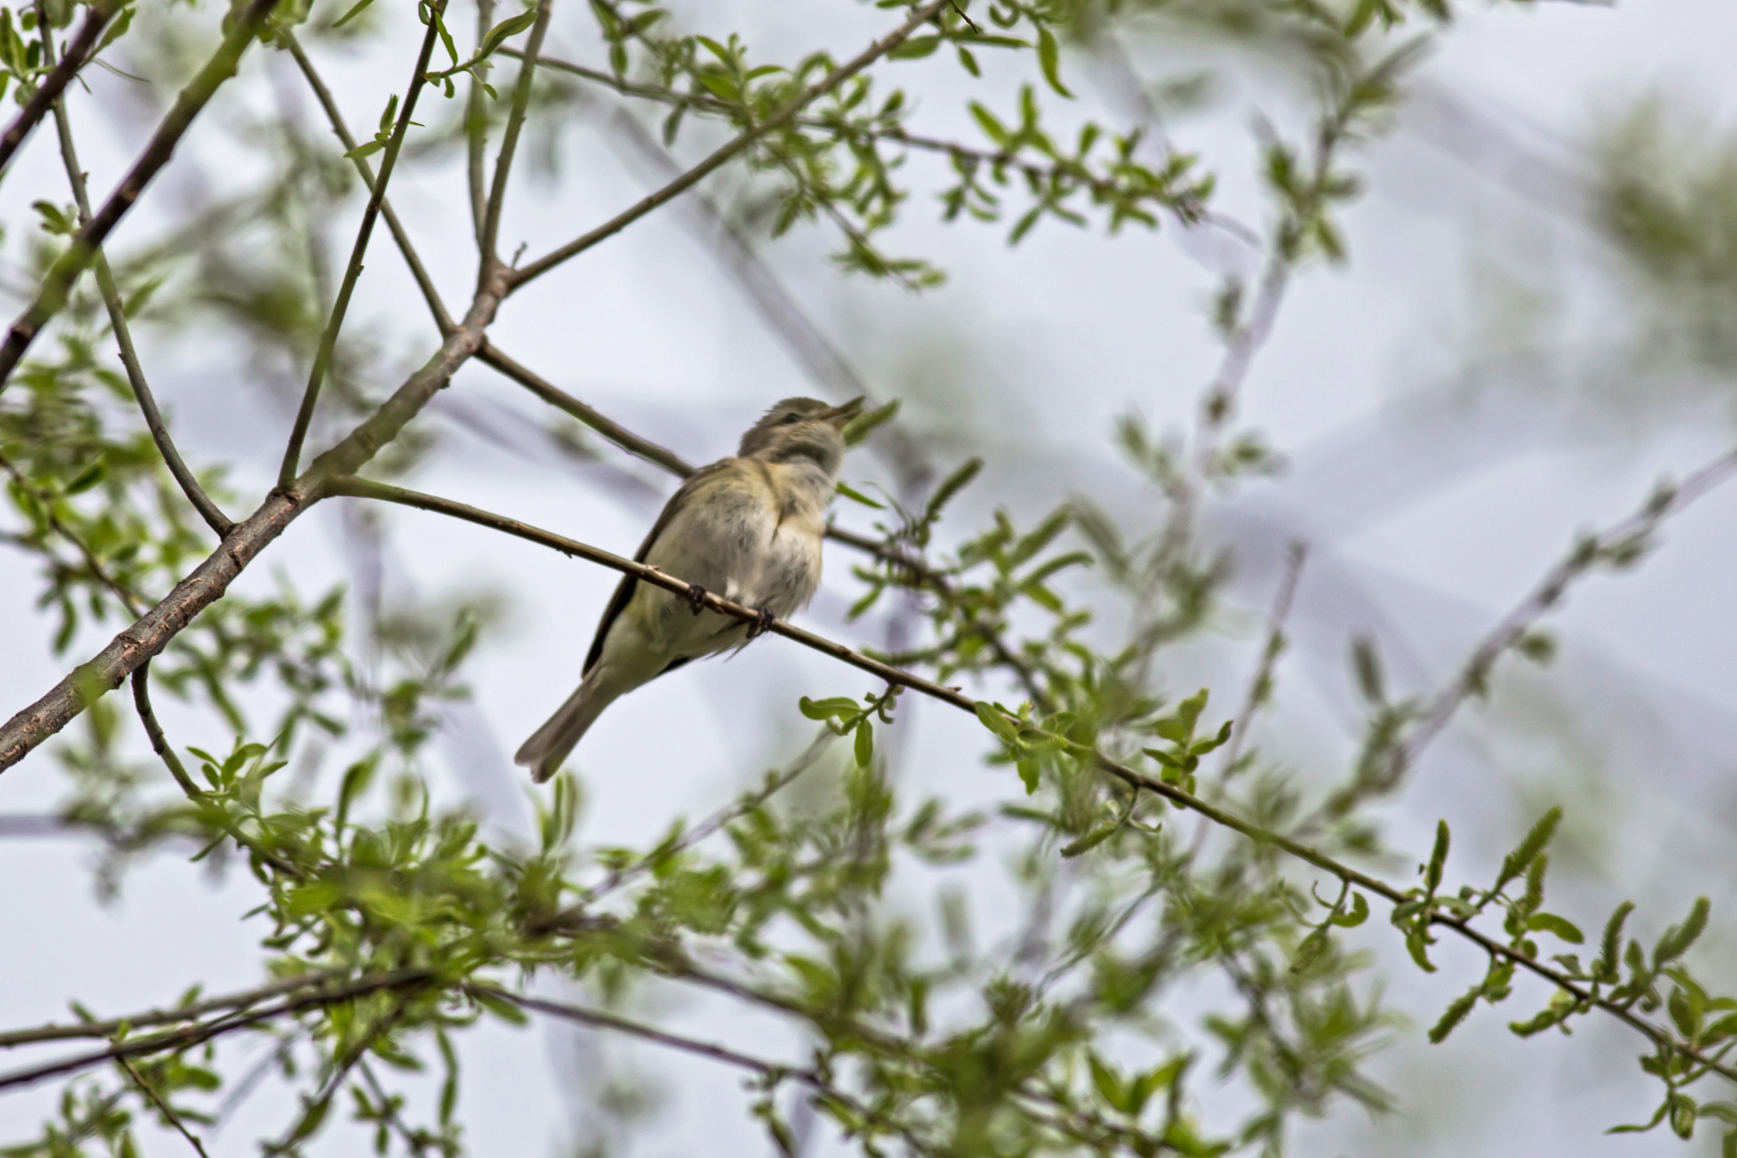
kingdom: Animalia
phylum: Chordata
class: Aves
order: Passeriformes
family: Vireonidae
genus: Vireo
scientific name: Vireo gilvus
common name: Warbling vireo
